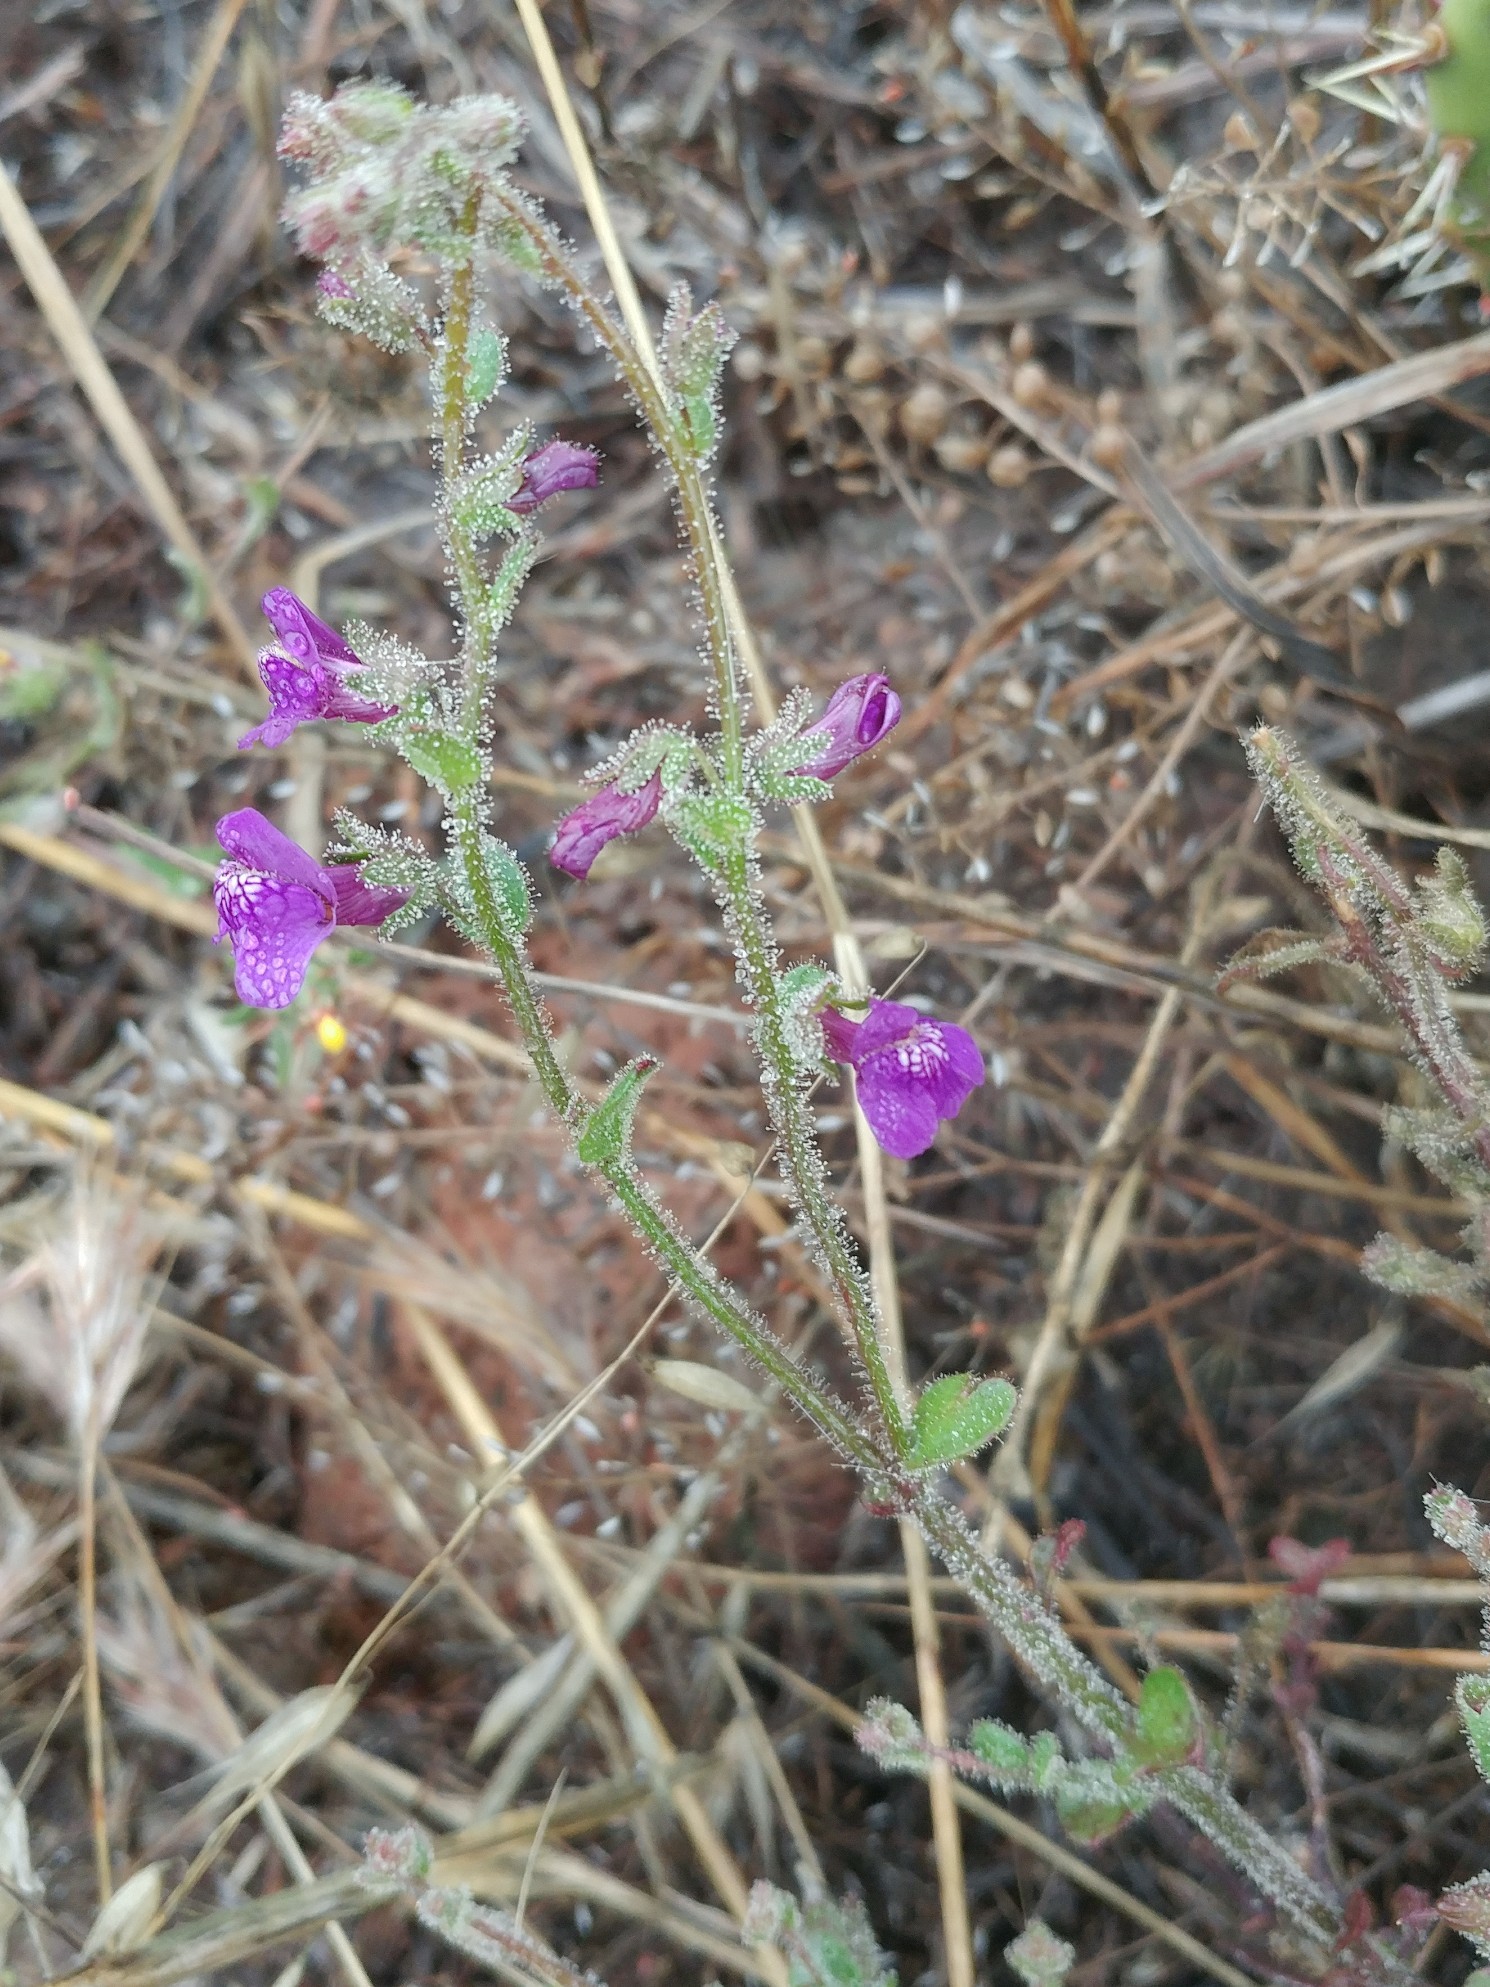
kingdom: Plantae
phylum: Tracheophyta
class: Magnoliopsida
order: Lamiales
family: Plantaginaceae
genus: Sairocarpus
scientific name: Sairocarpus nuttallianus
